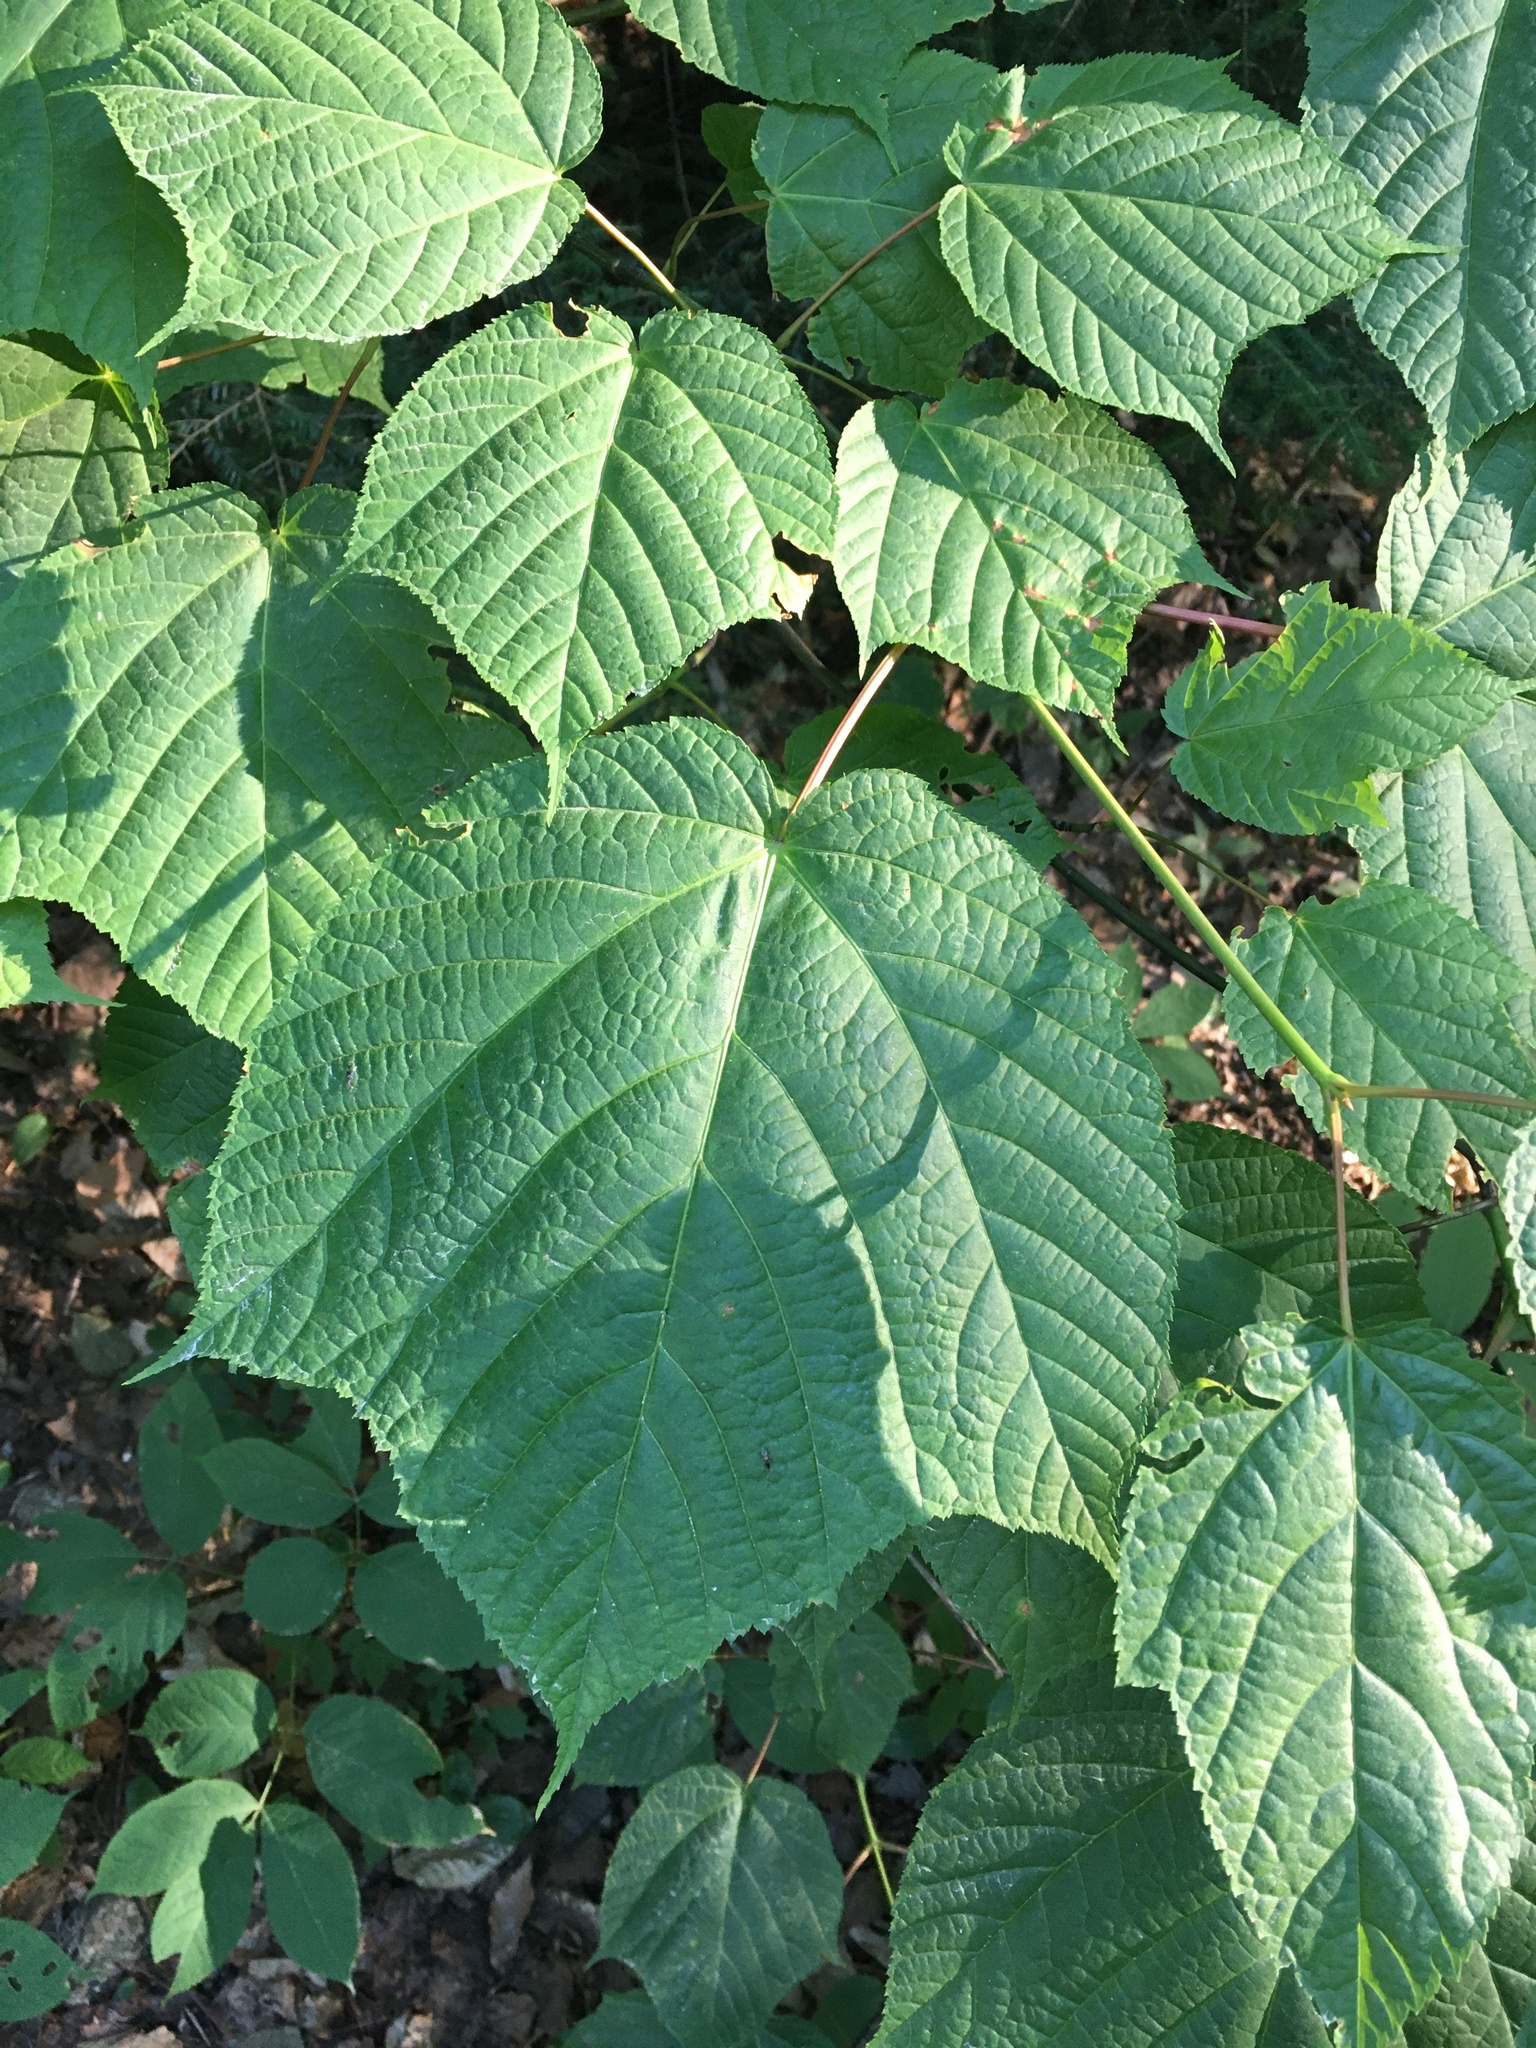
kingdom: Plantae
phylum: Tracheophyta
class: Magnoliopsida
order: Sapindales
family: Sapindaceae
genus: Acer
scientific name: Acer pensylvanicum
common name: Moosewood
